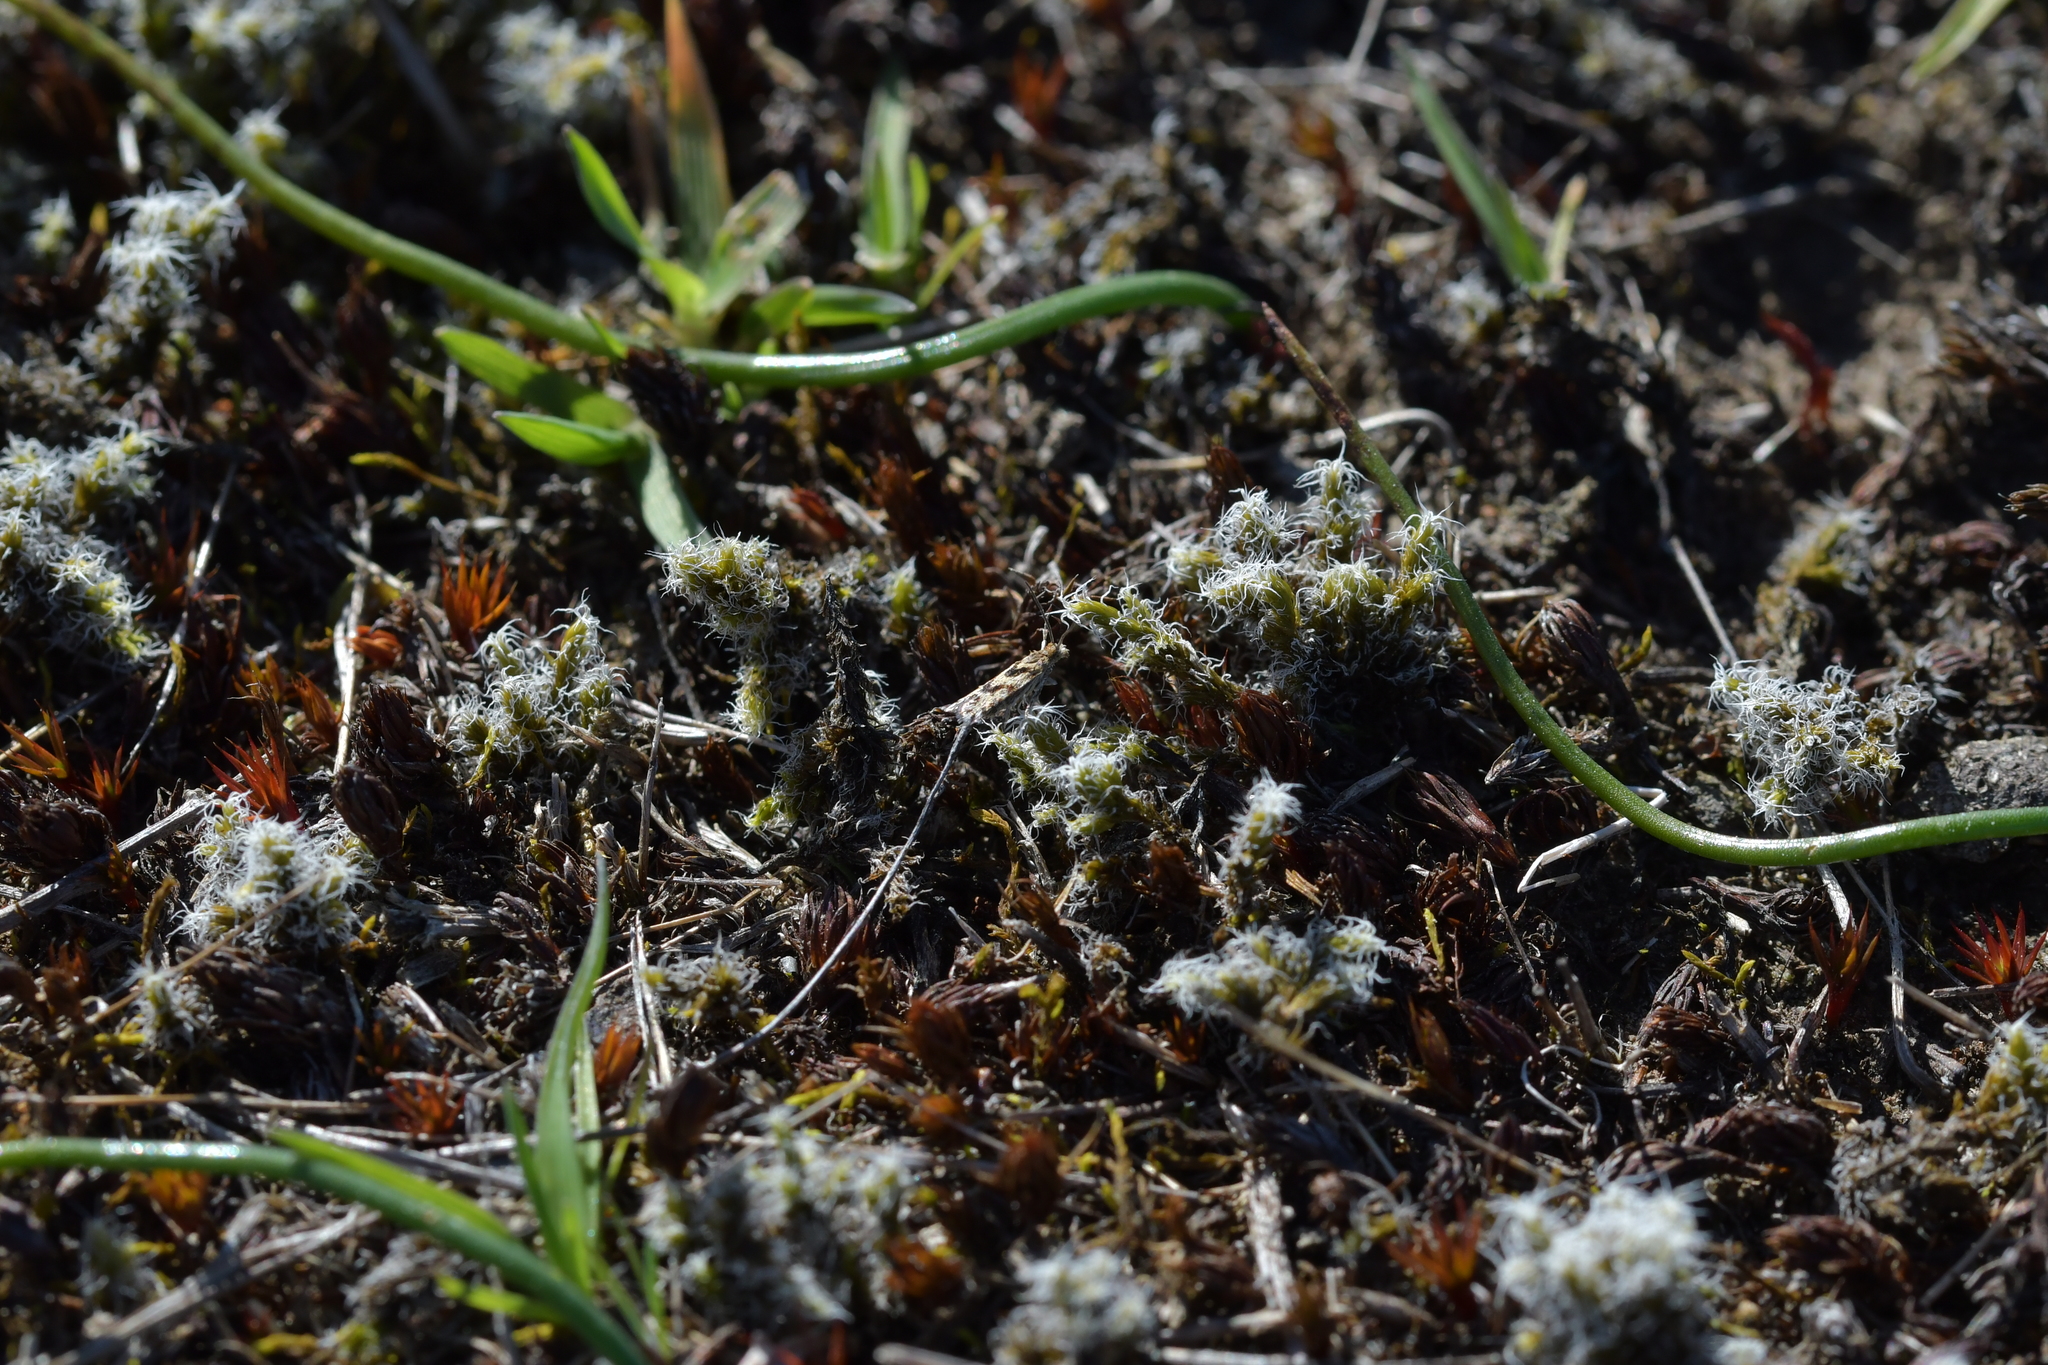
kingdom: Animalia
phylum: Arthropoda
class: Insecta
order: Lepidoptera
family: Tortricidae
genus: Eurythecta
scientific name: Eurythecta robusta
